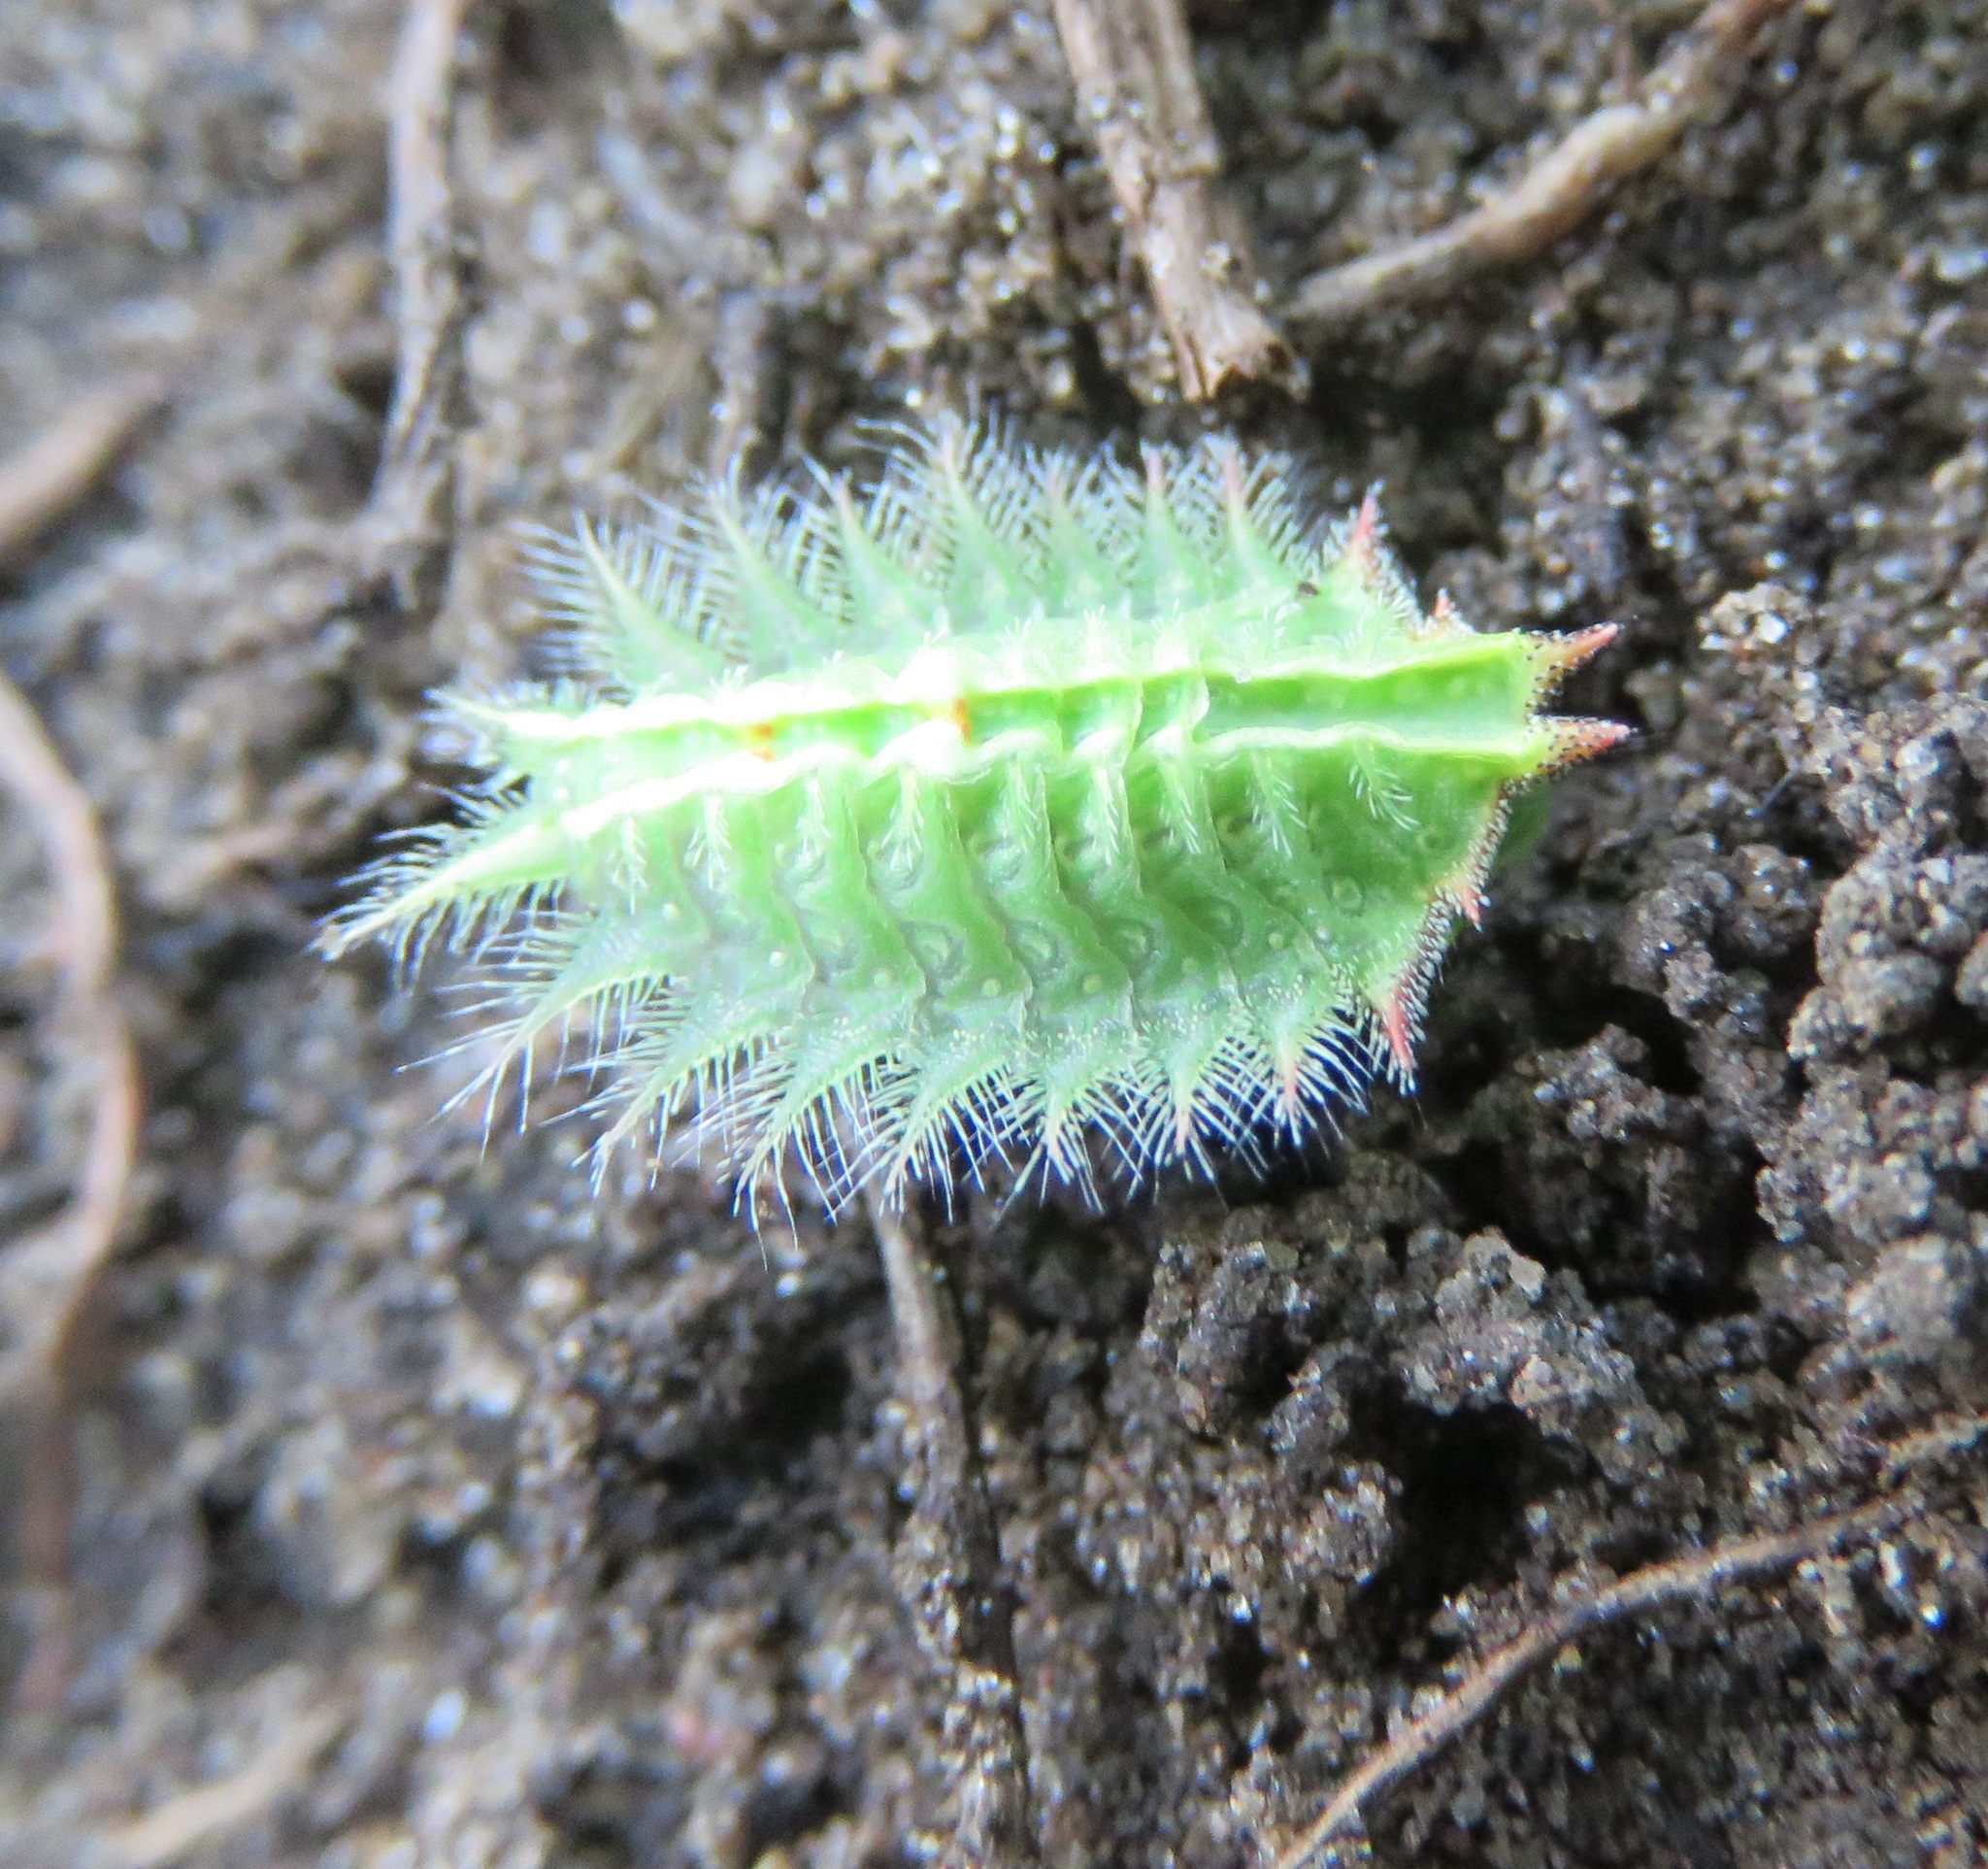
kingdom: Animalia
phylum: Arthropoda
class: Insecta
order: Lepidoptera
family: Limacodidae
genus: Isa
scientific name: Isa textula
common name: Crowned slug moth
